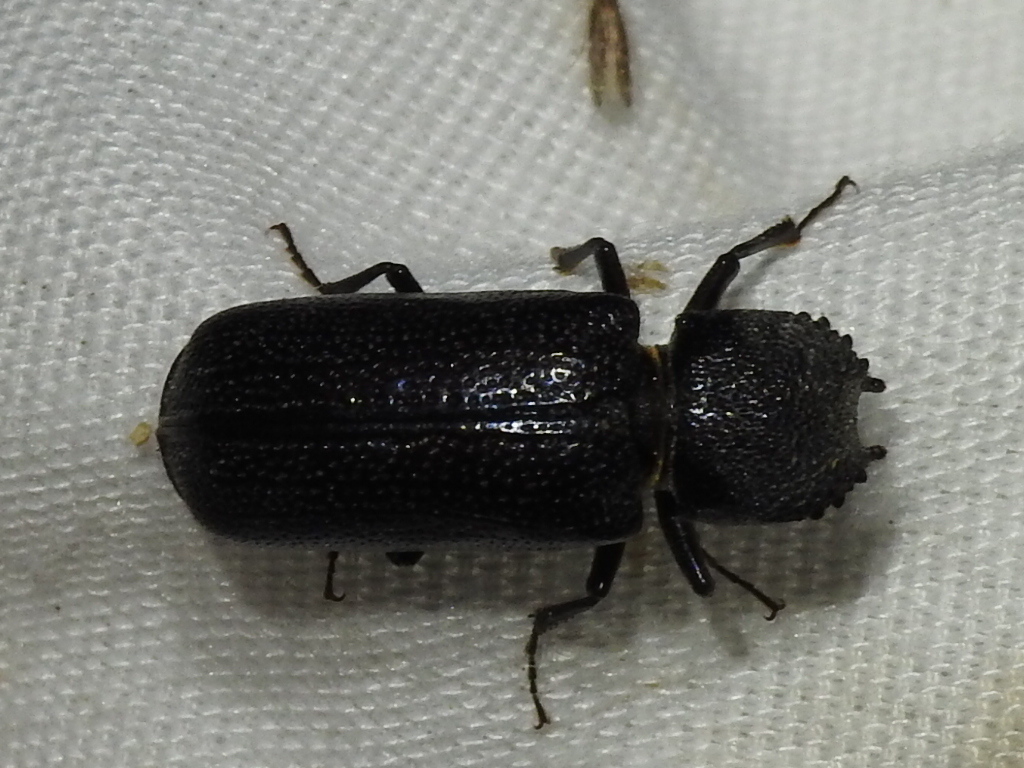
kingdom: Animalia
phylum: Arthropoda
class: Insecta
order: Coleoptera
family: Bostrichidae
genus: Apatides
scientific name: Apatides fortis
